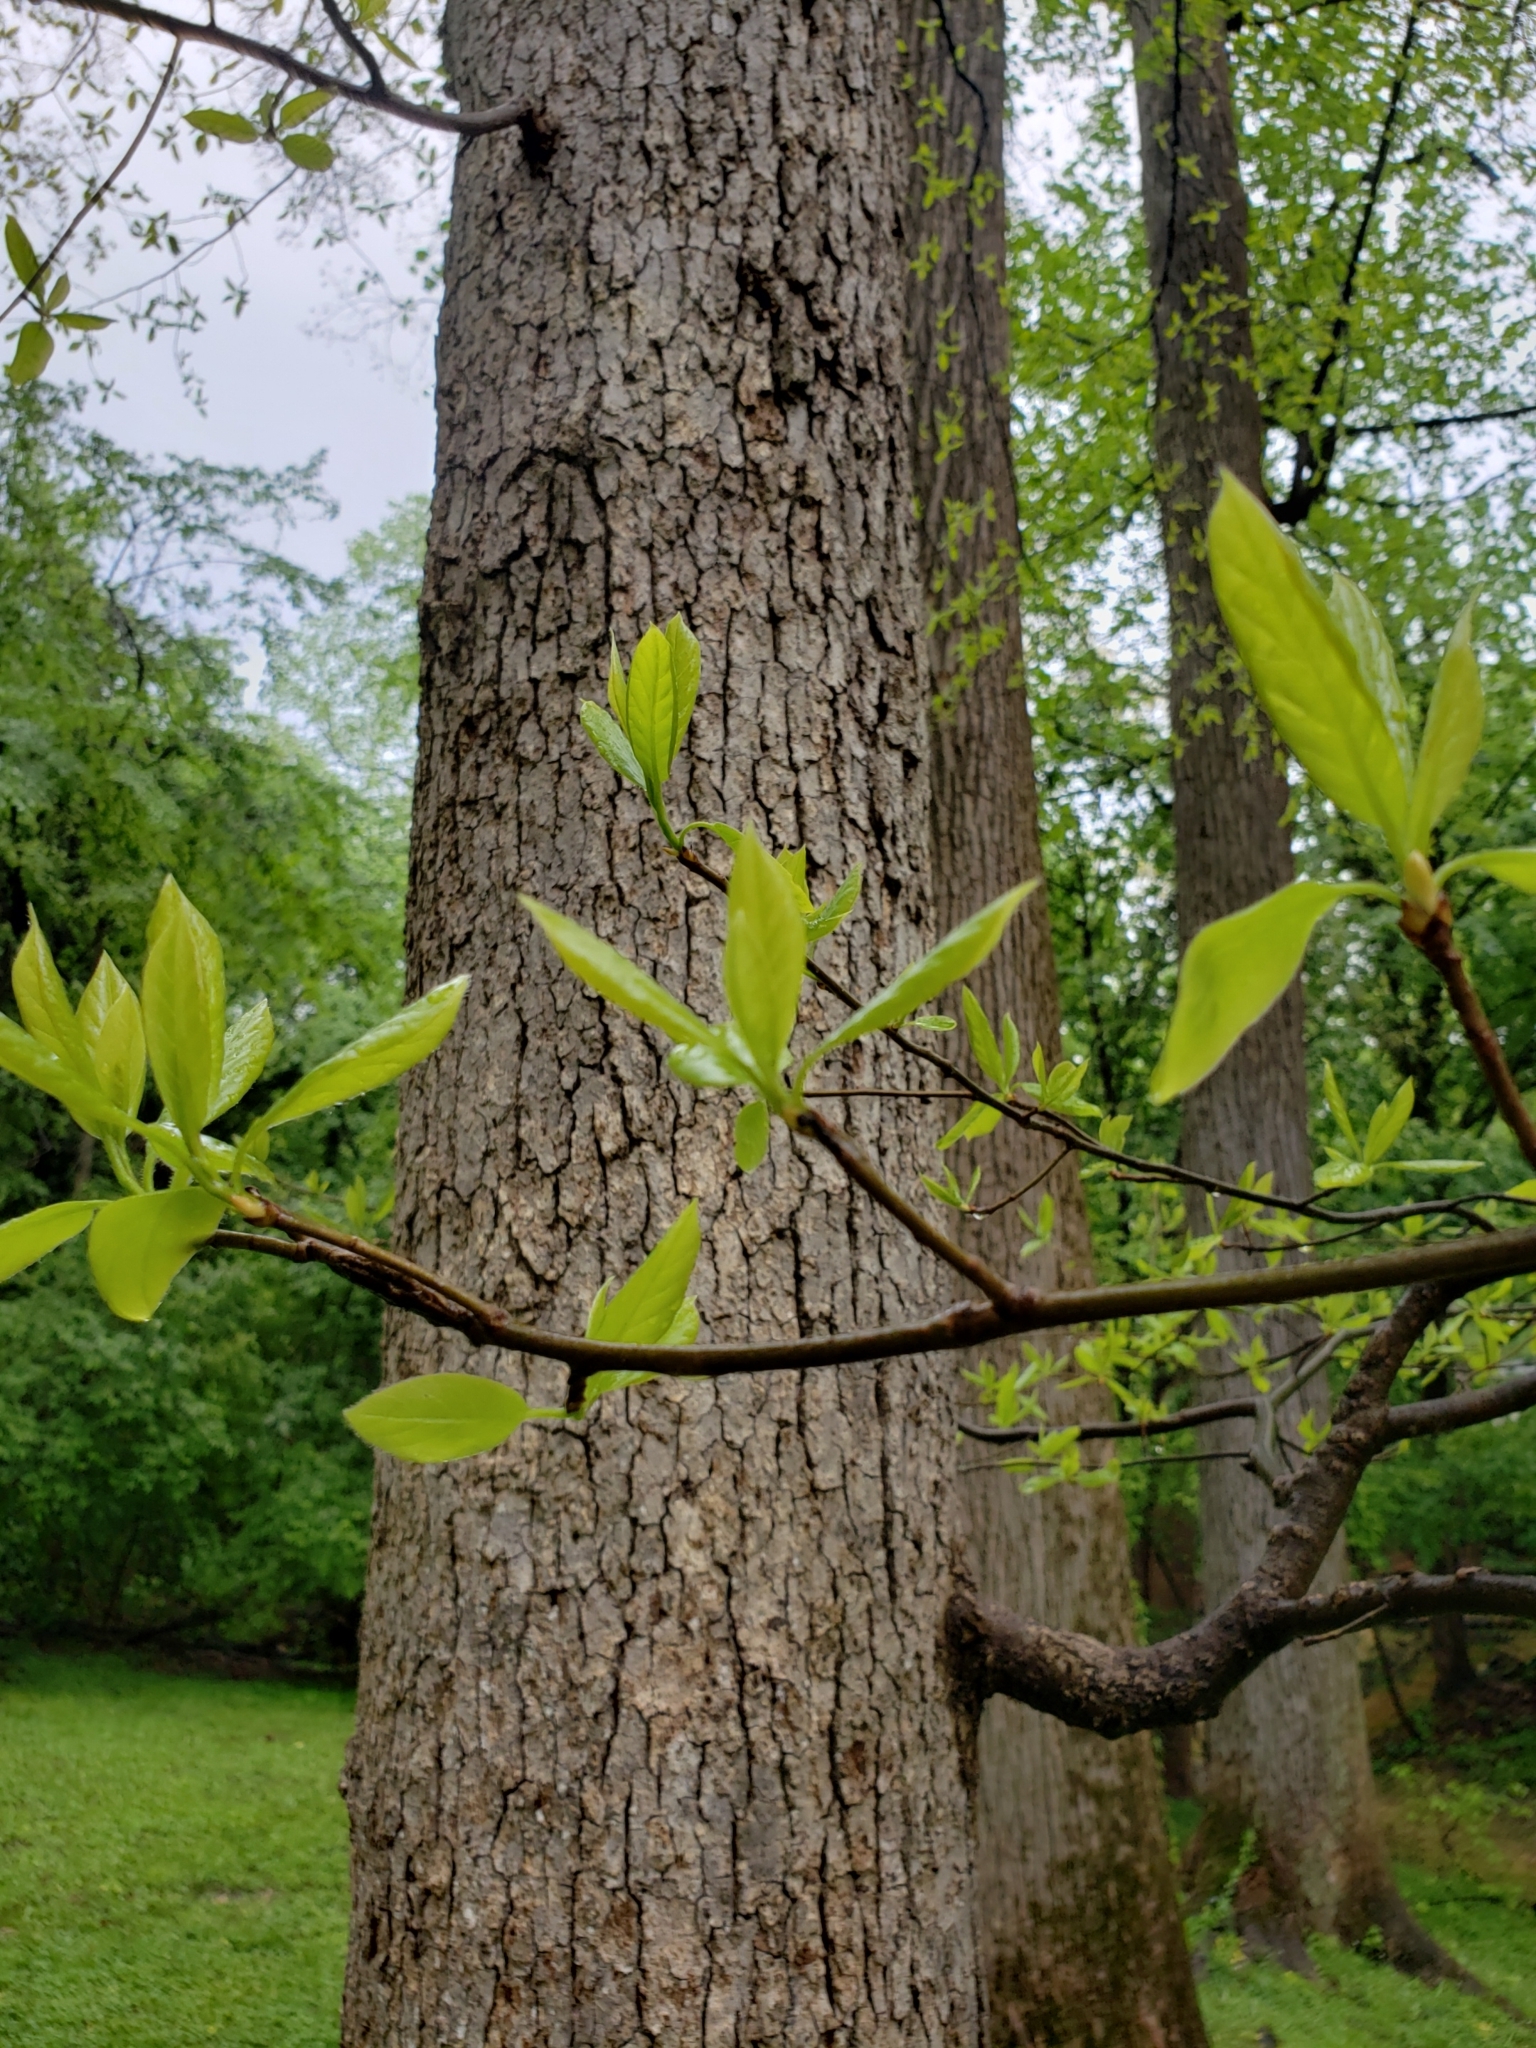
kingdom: Plantae
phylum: Tracheophyta
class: Magnoliopsida
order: Cornales
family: Nyssaceae
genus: Nyssa
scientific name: Nyssa sylvatica
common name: Black tupelo
